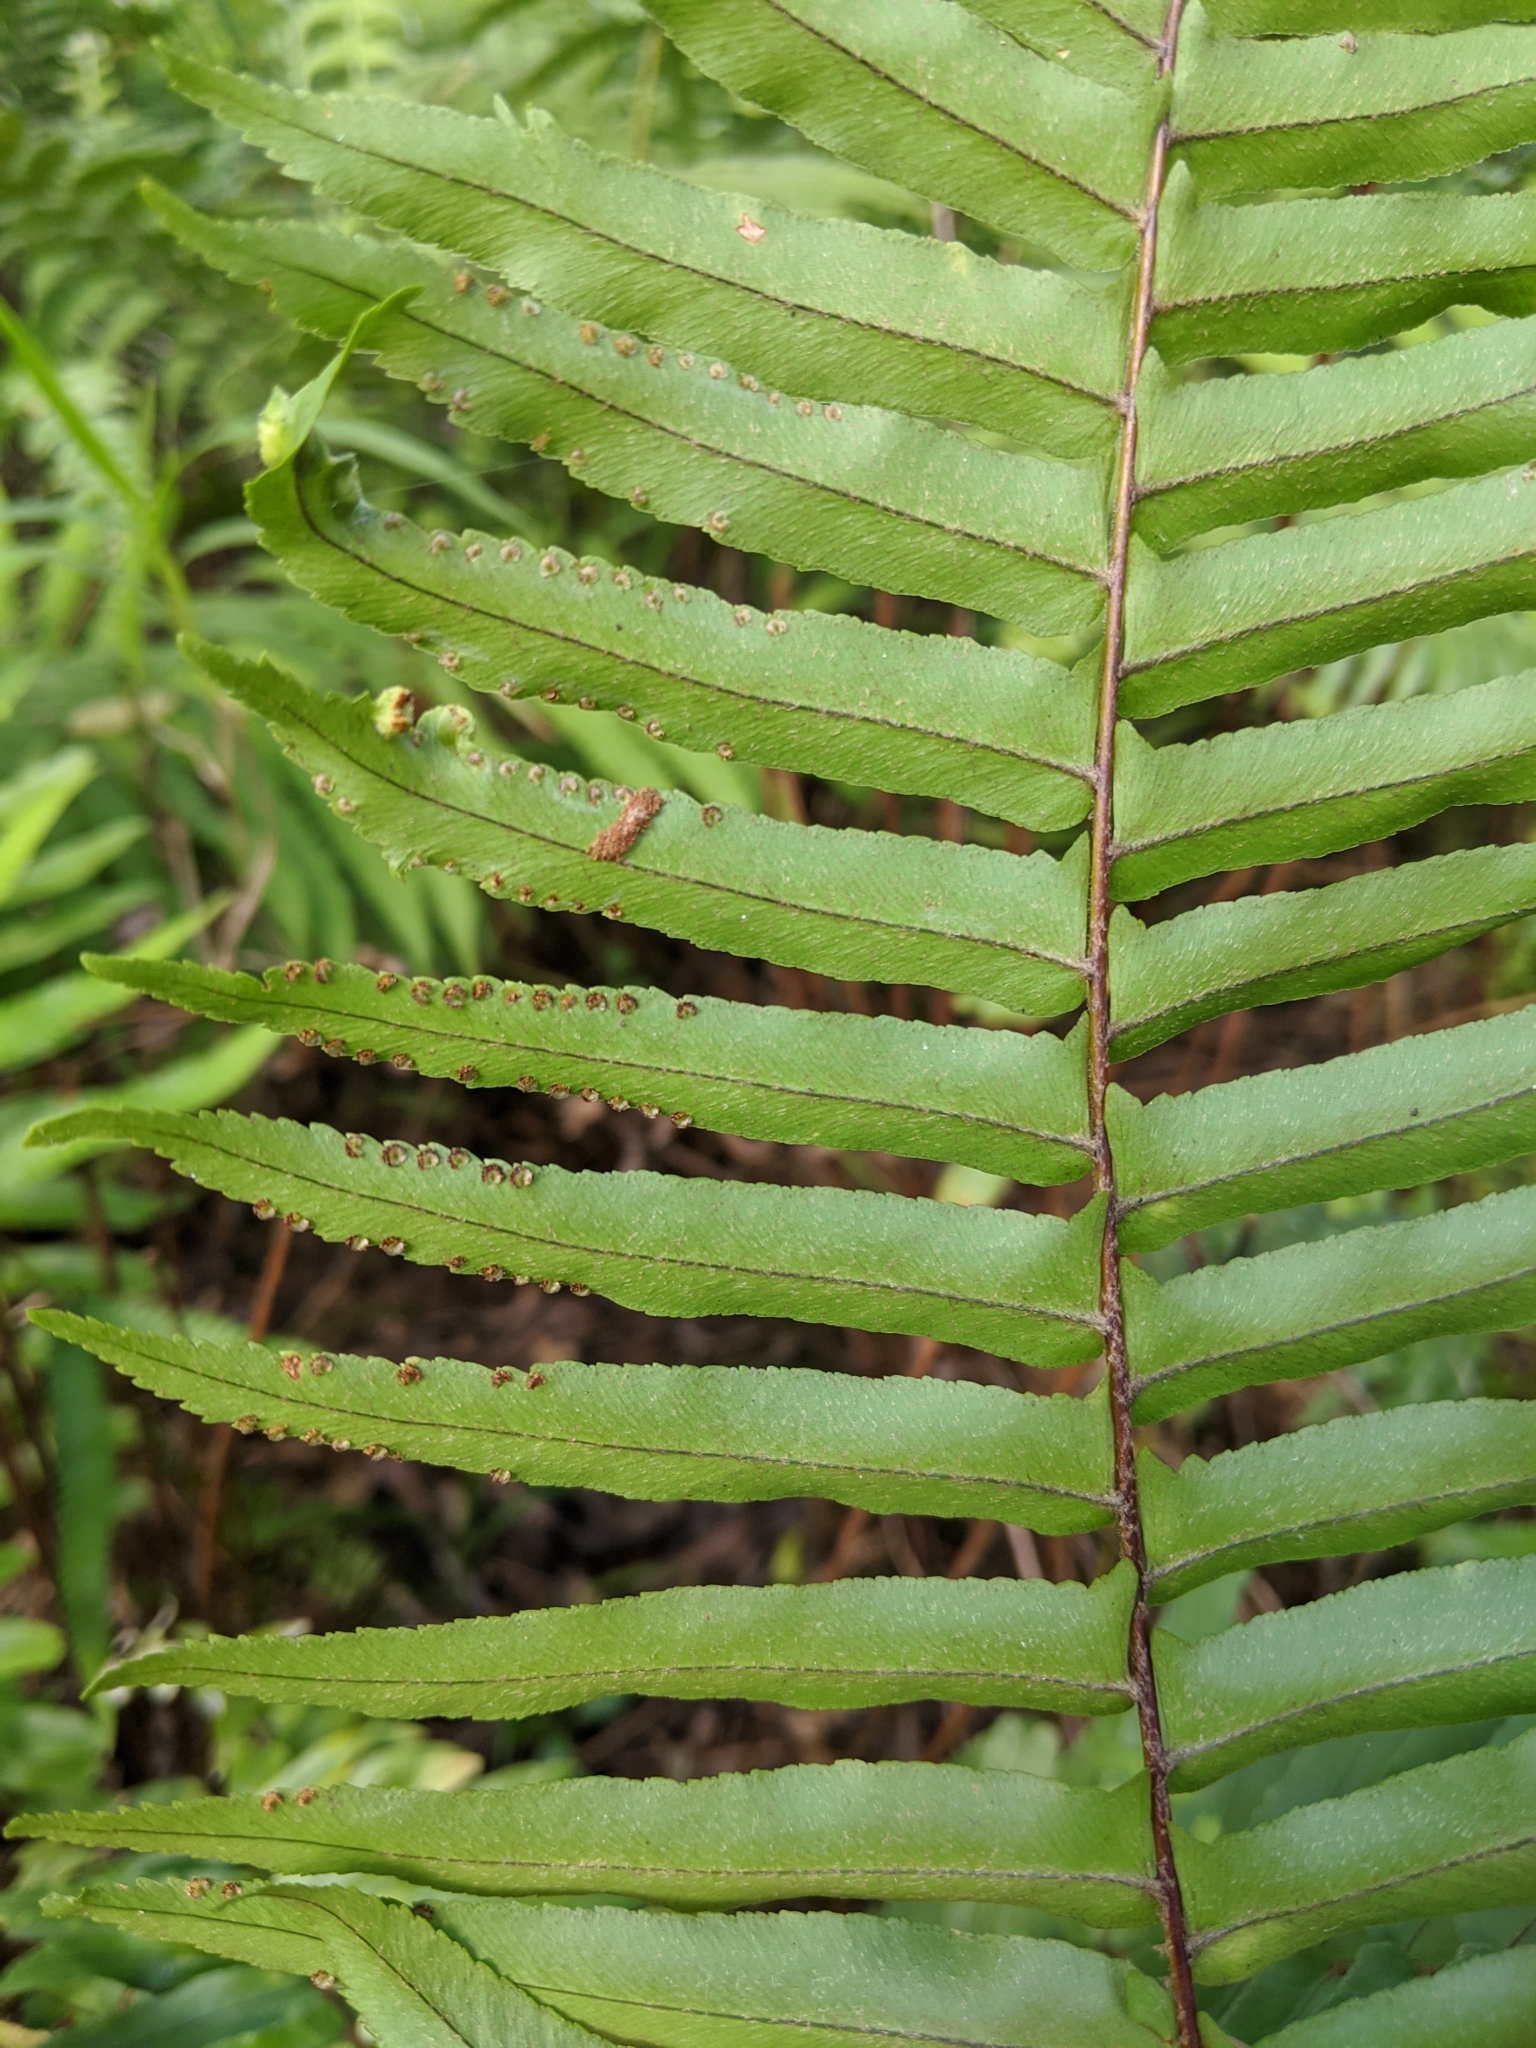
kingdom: Plantae
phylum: Tracheophyta
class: Polypodiopsida
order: Polypodiales
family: Nephrolepidaceae
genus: Nephrolepis
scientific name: Nephrolepis brownii
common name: Asian swordfern
